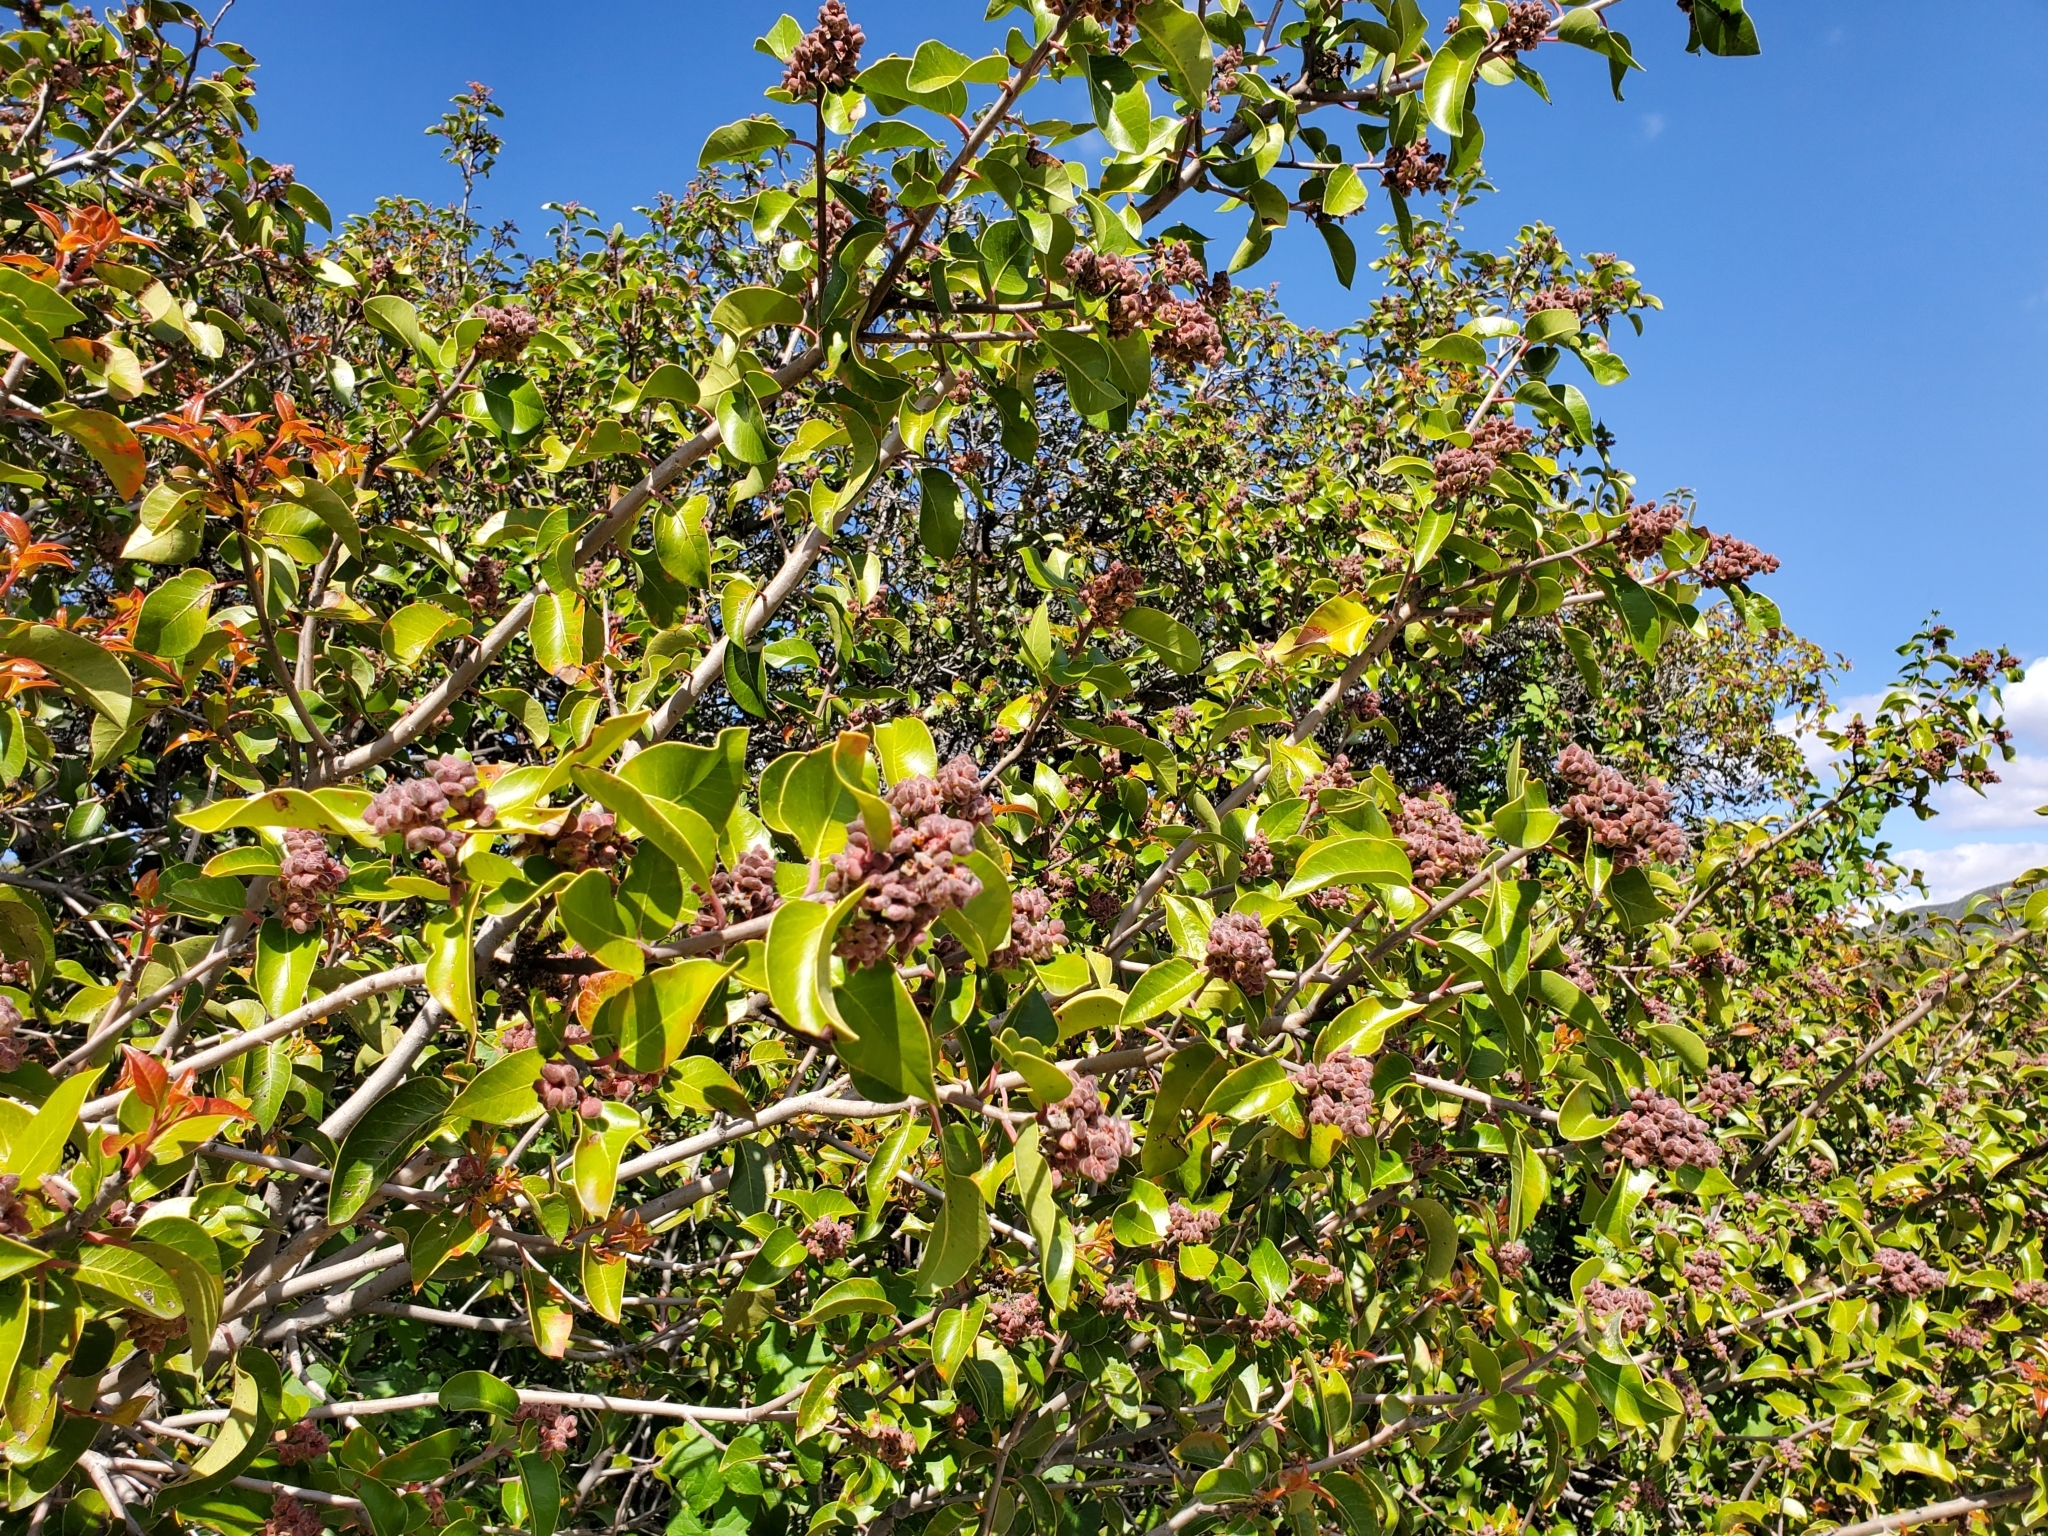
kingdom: Plantae
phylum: Tracheophyta
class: Magnoliopsida
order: Sapindales
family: Anacardiaceae
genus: Rhus
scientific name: Rhus ovata
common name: Sugar sumac
